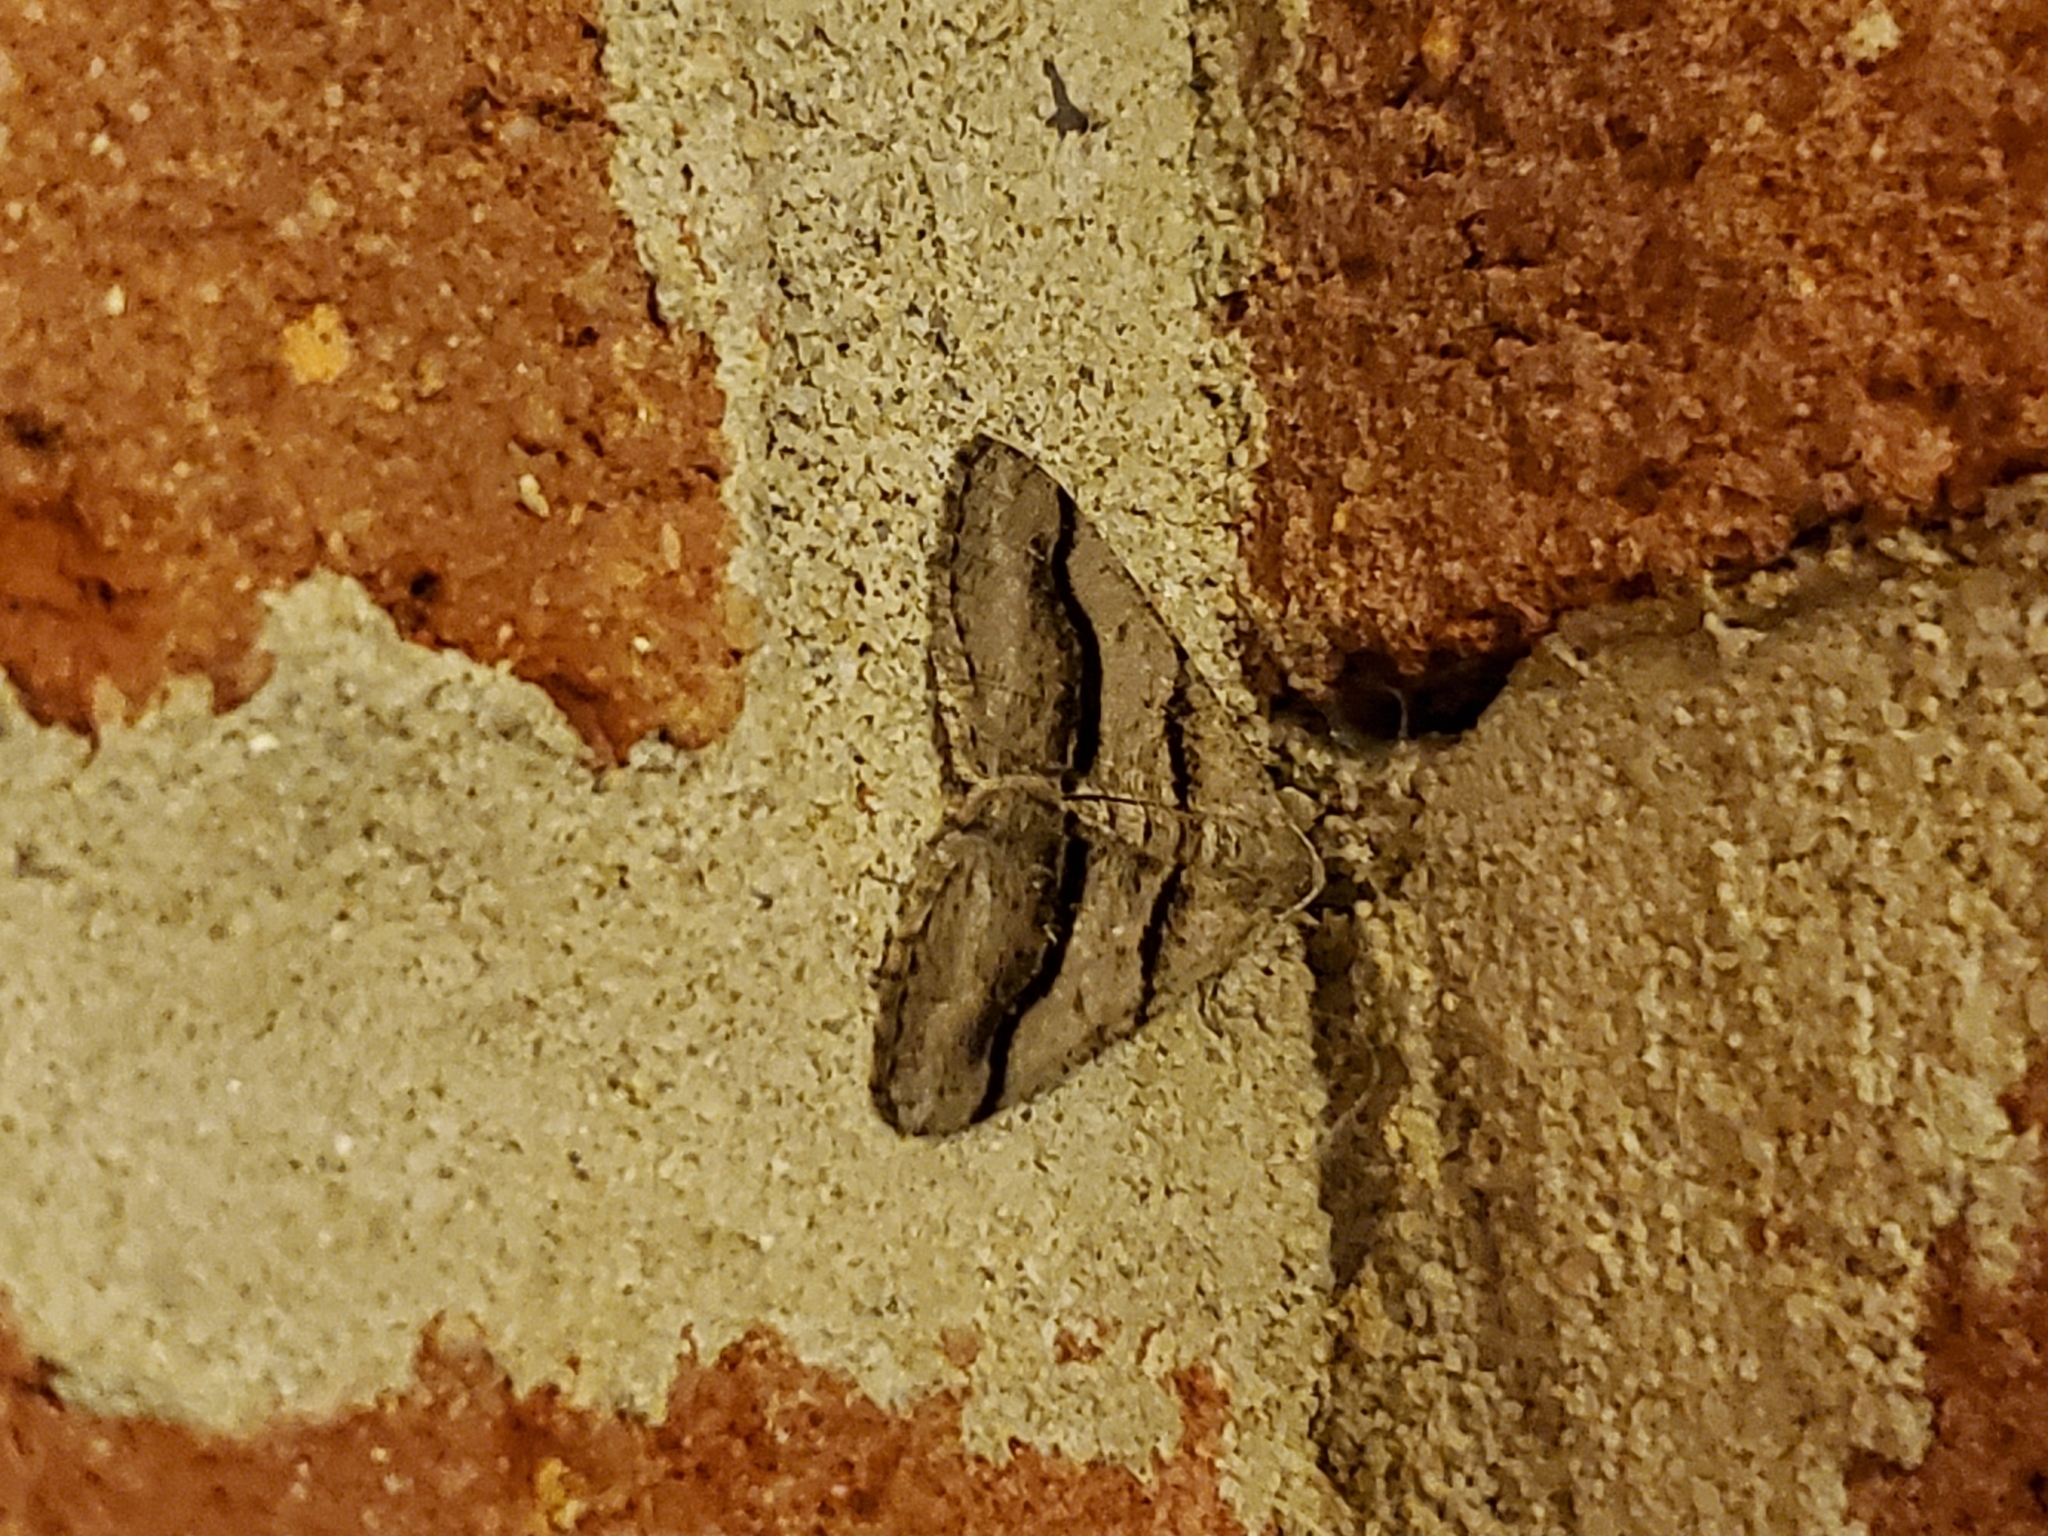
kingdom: Animalia
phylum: Arthropoda
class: Insecta
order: Lepidoptera
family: Geometridae
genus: Digrammia
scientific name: Digrammia continuata
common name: Curve-lined angle
